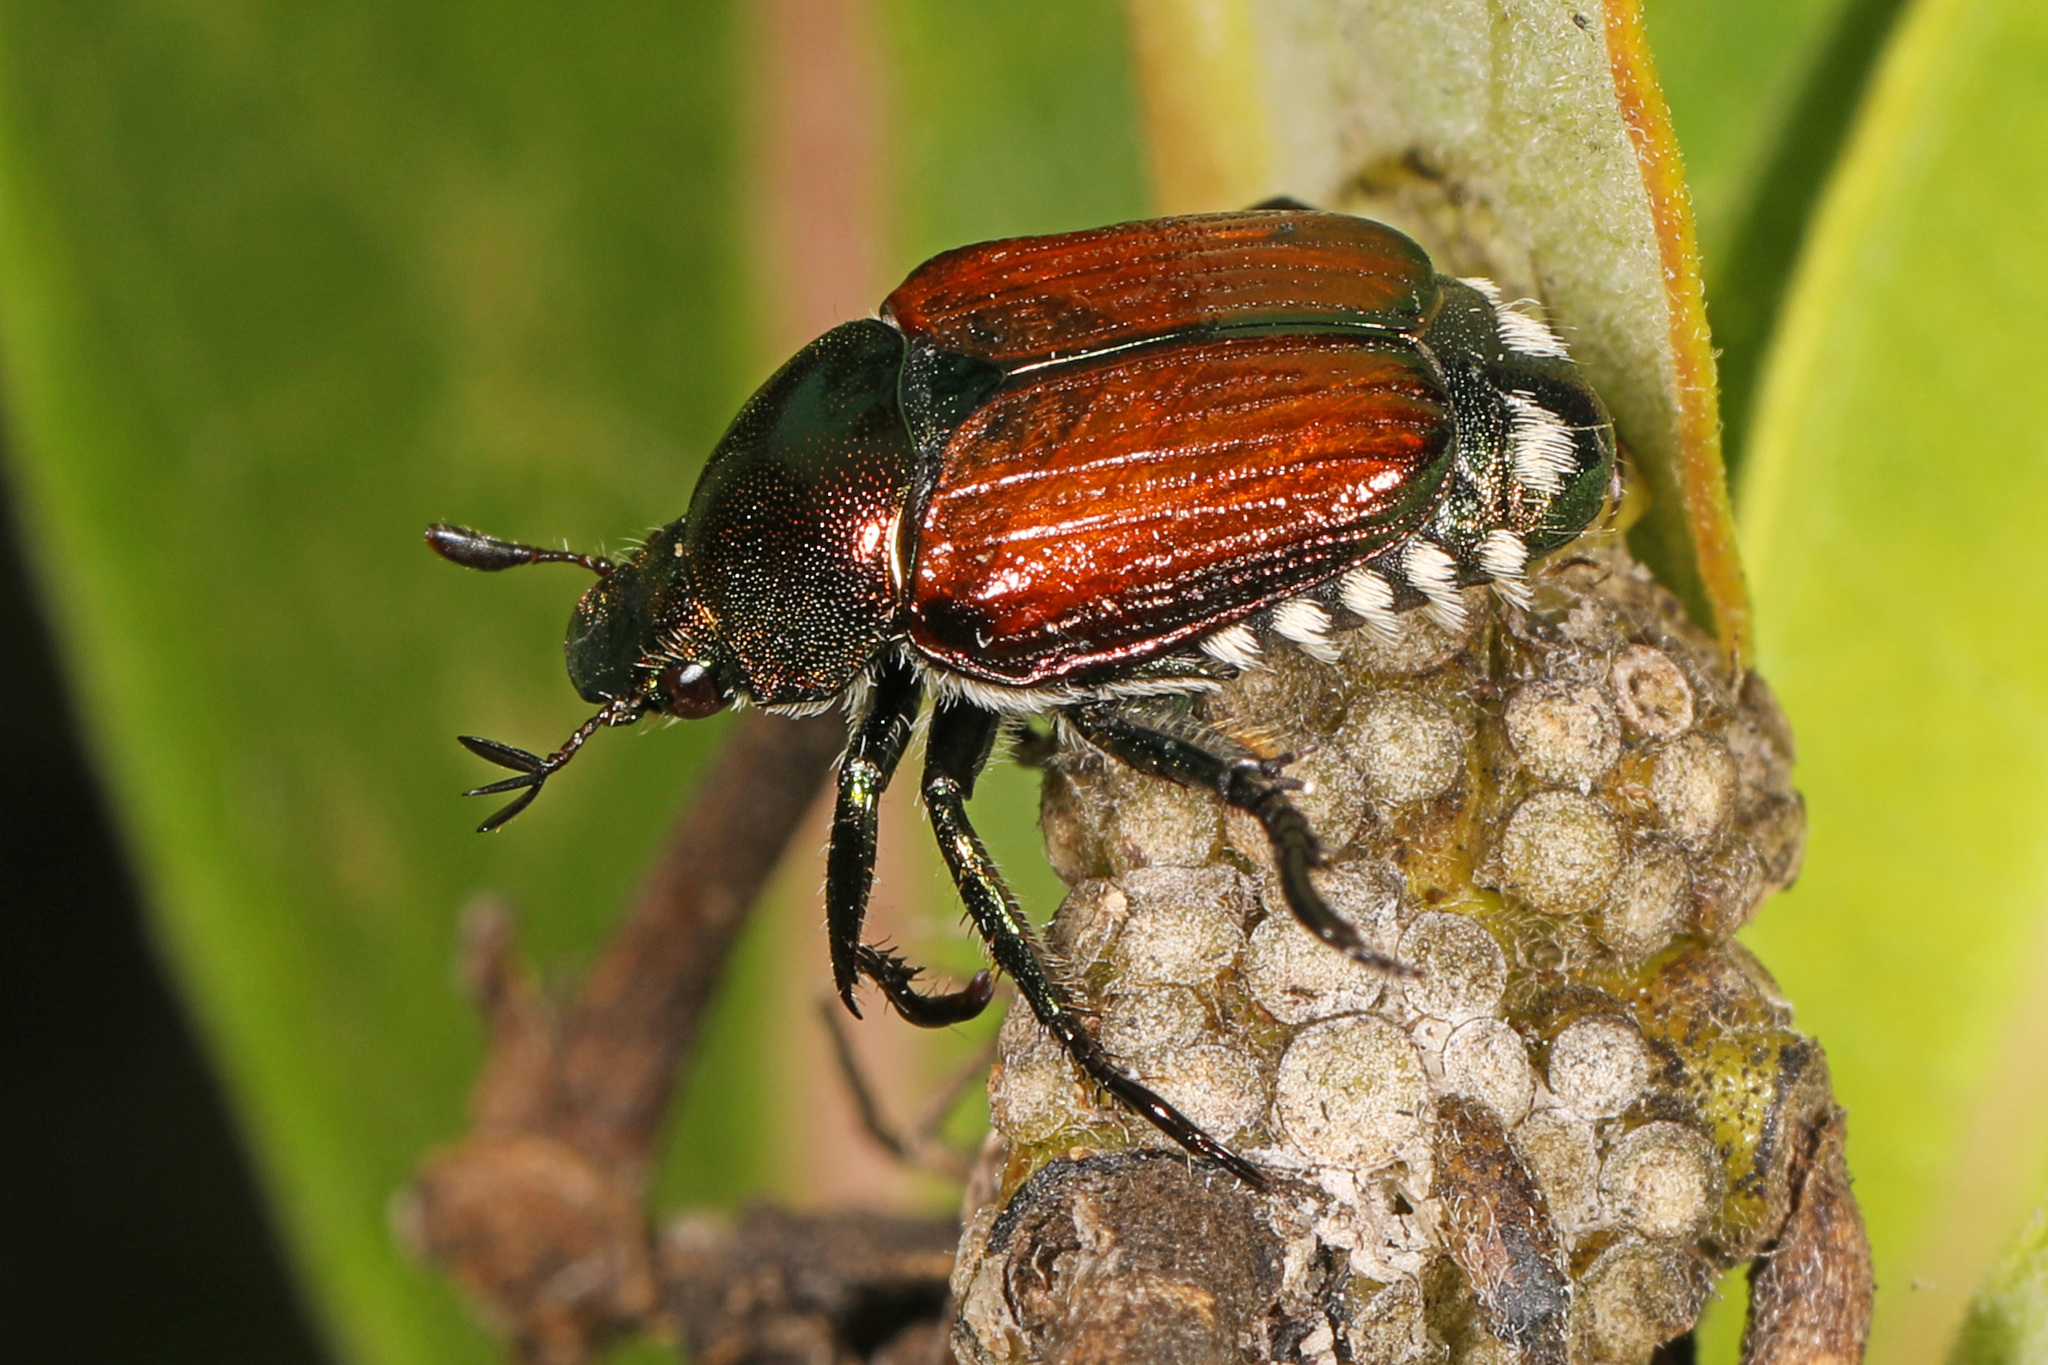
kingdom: Animalia
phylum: Arthropoda
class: Insecta
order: Coleoptera
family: Scarabaeidae
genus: Popillia
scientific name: Popillia japonica
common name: Japanese beetle
